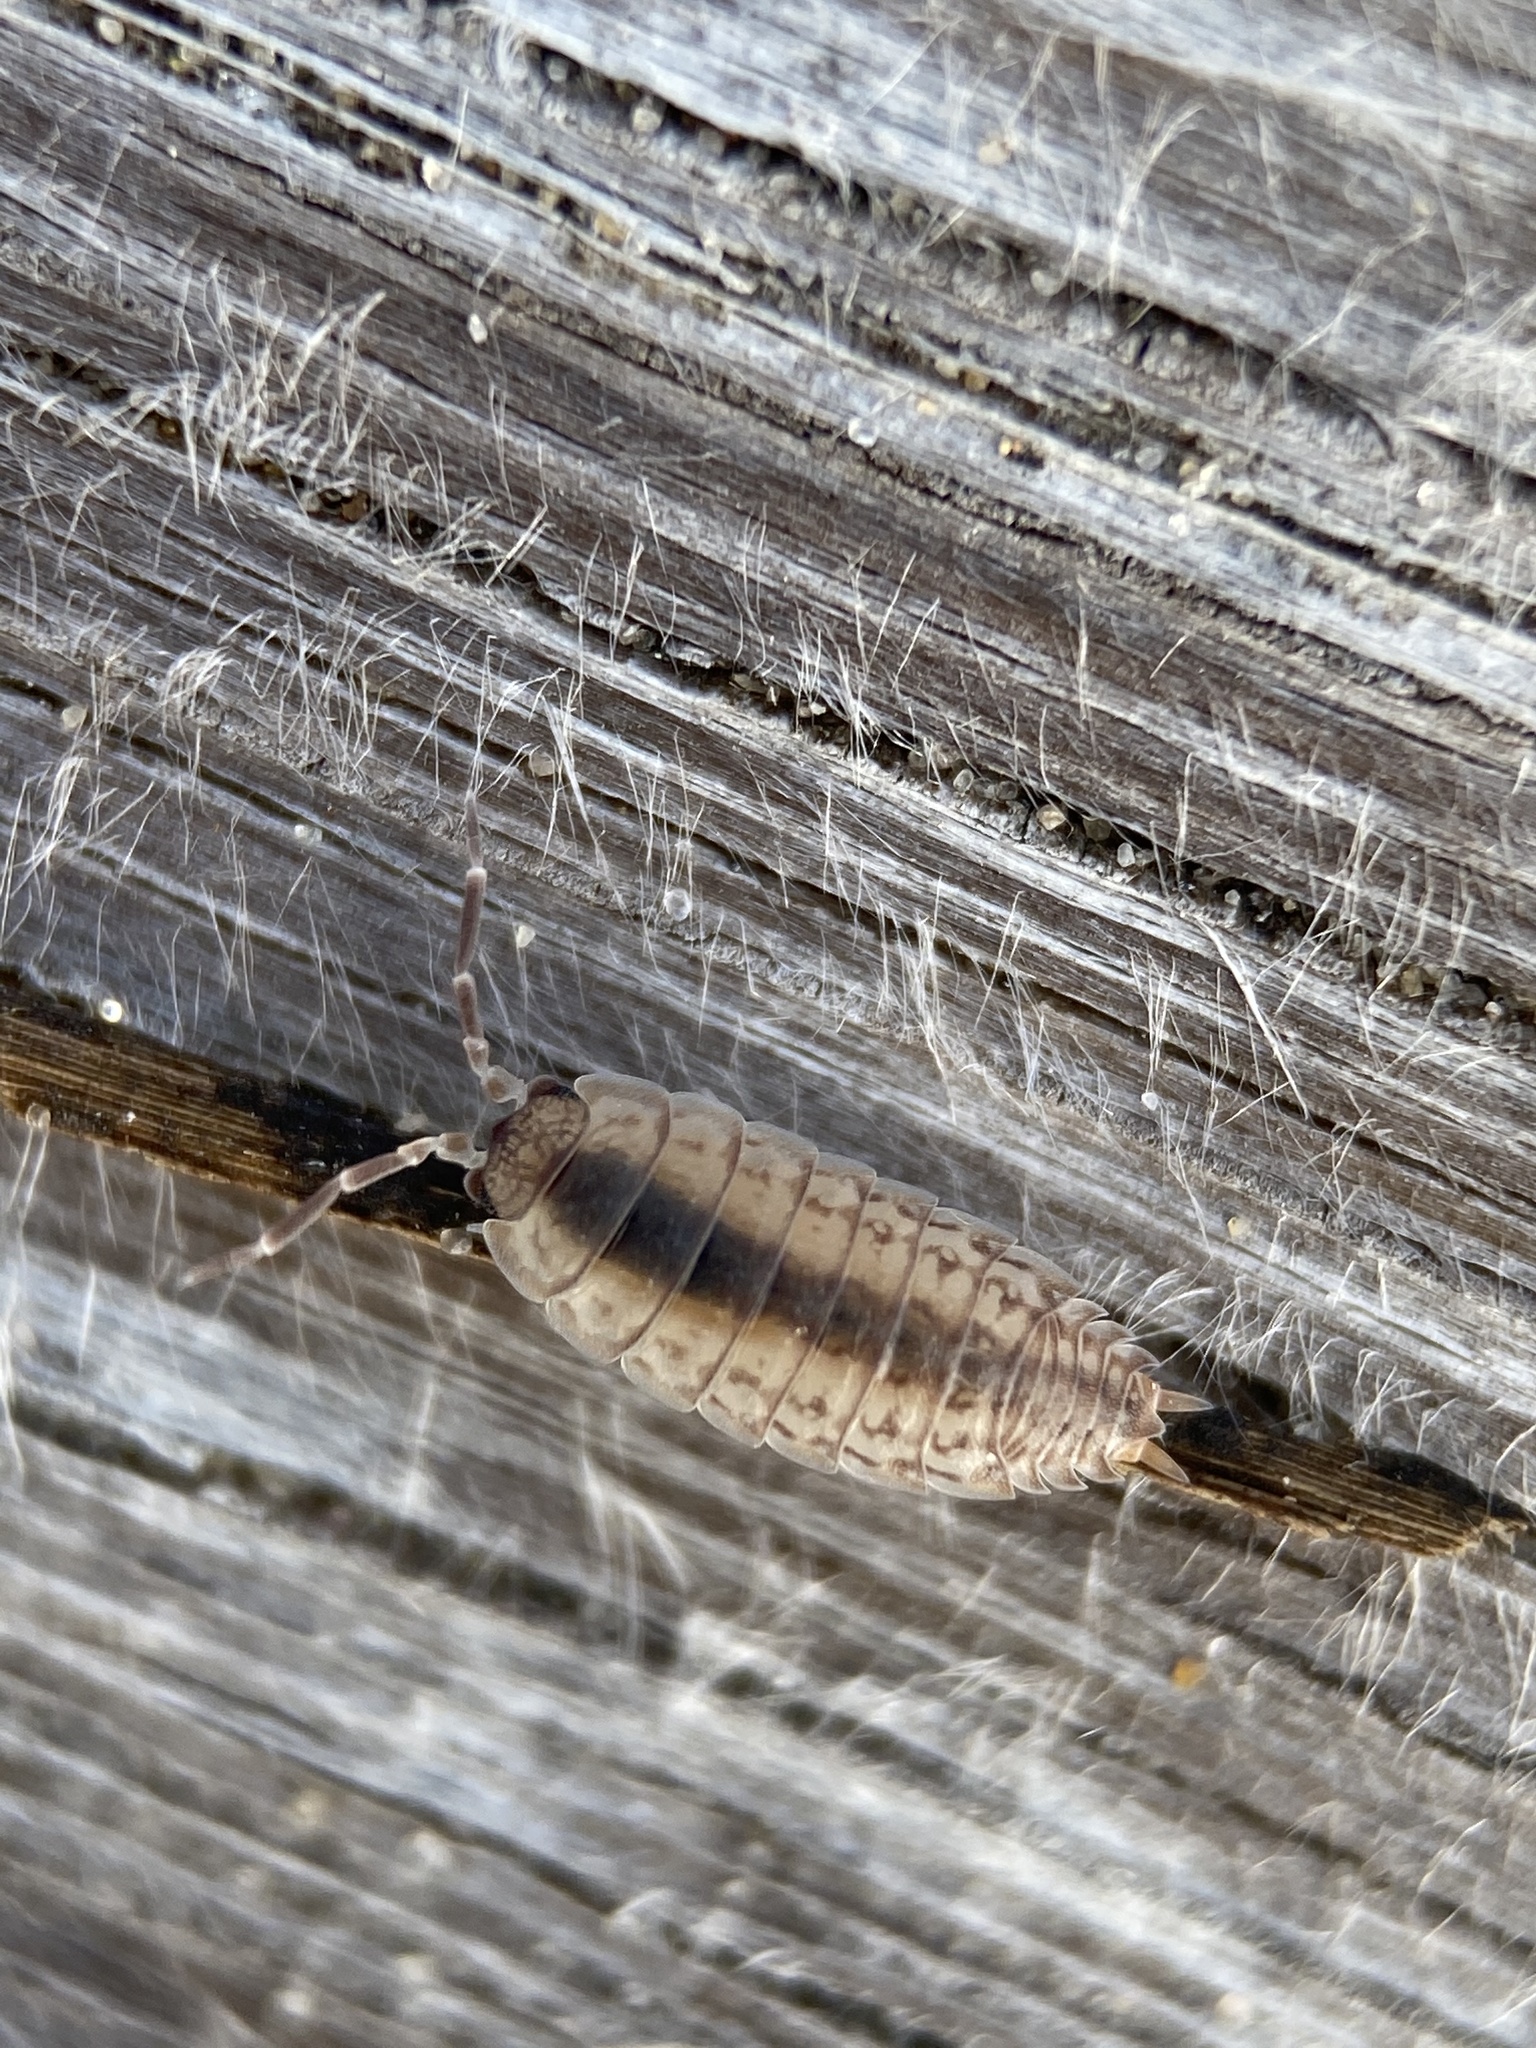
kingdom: Animalia
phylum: Arthropoda
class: Malacostraca
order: Isopoda
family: Porcellionidae
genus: Porcellionides
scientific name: Porcellionides virgatus
